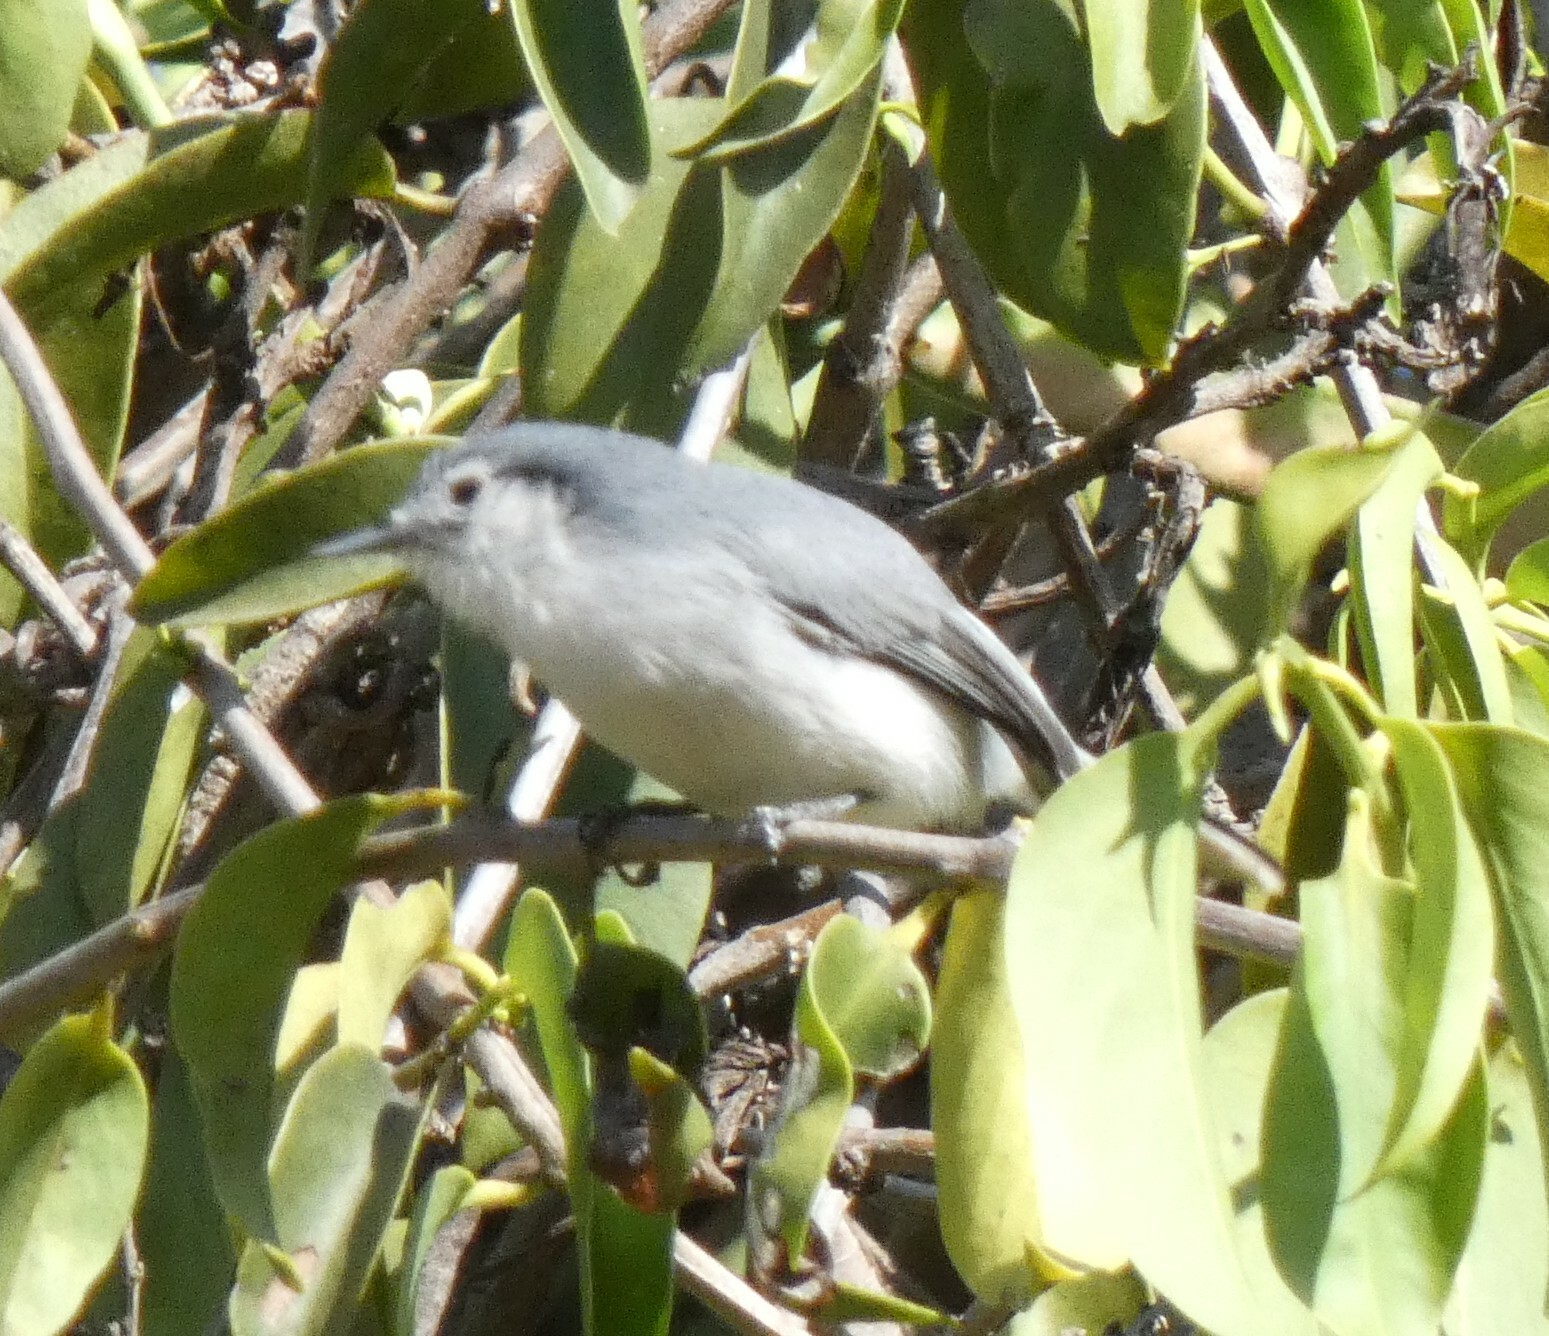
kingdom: Animalia
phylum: Chordata
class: Aves
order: Passeriformes
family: Polioptilidae
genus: Polioptila
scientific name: Polioptila dumicola
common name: Masked gnatcatcher
